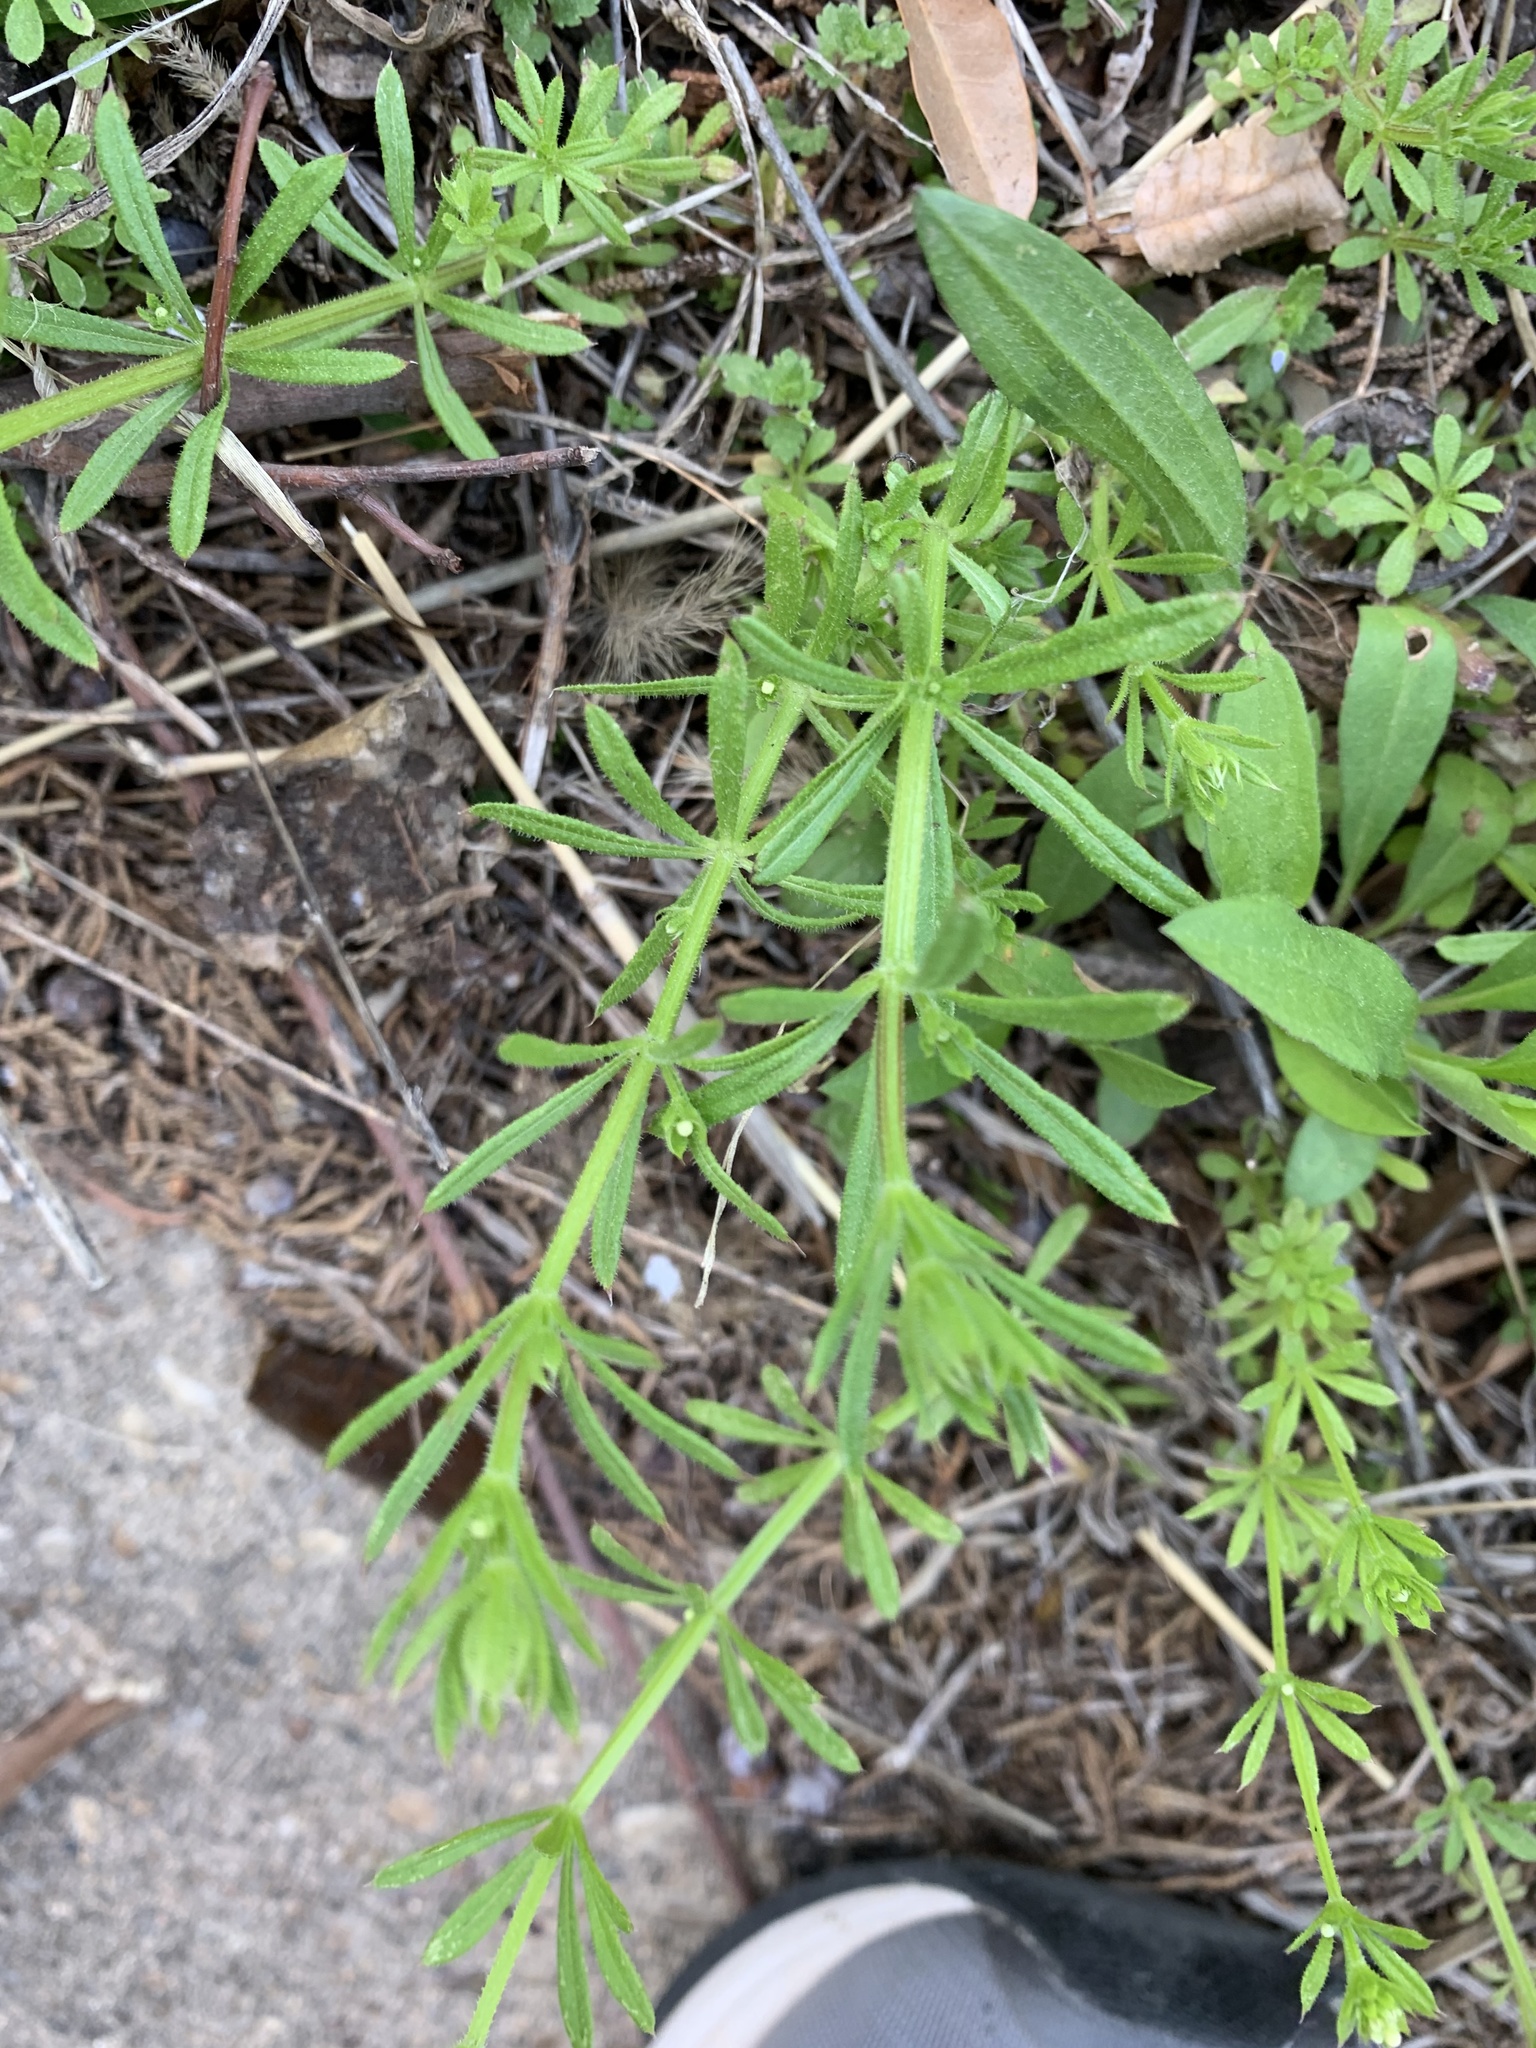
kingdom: Plantae
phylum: Tracheophyta
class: Magnoliopsida
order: Gentianales
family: Rubiaceae
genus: Galium
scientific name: Galium aparine
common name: Cleavers
